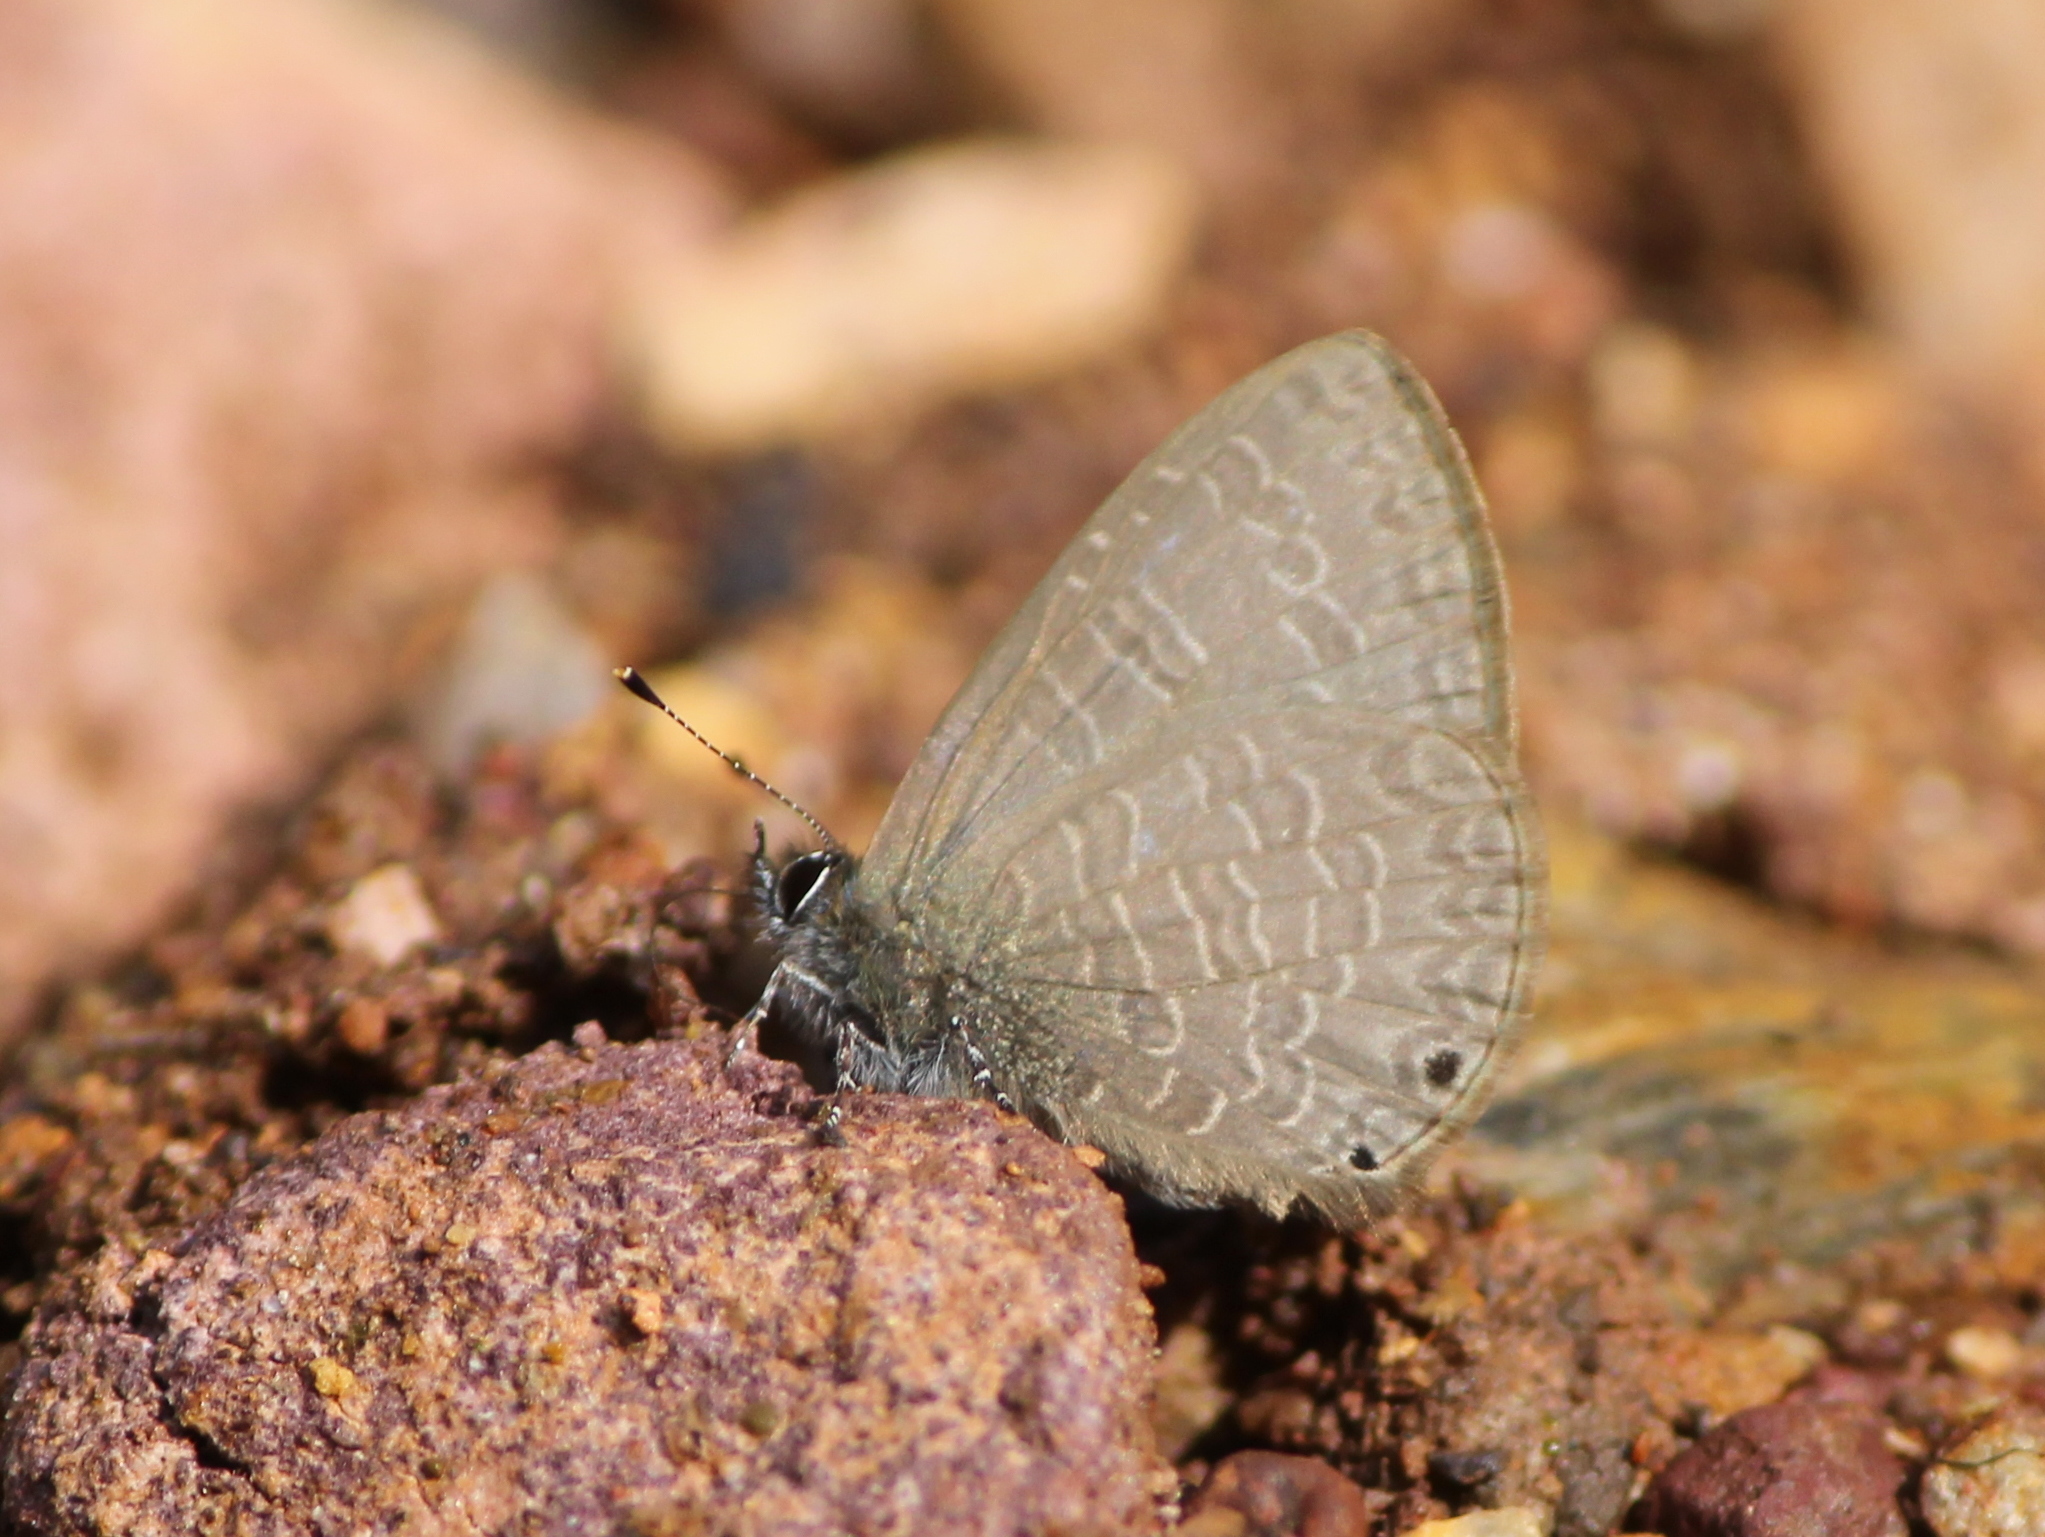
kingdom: Animalia
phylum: Arthropoda
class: Insecta
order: Lepidoptera
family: Lycaenidae
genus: Petrelaea
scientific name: Petrelaea dana
